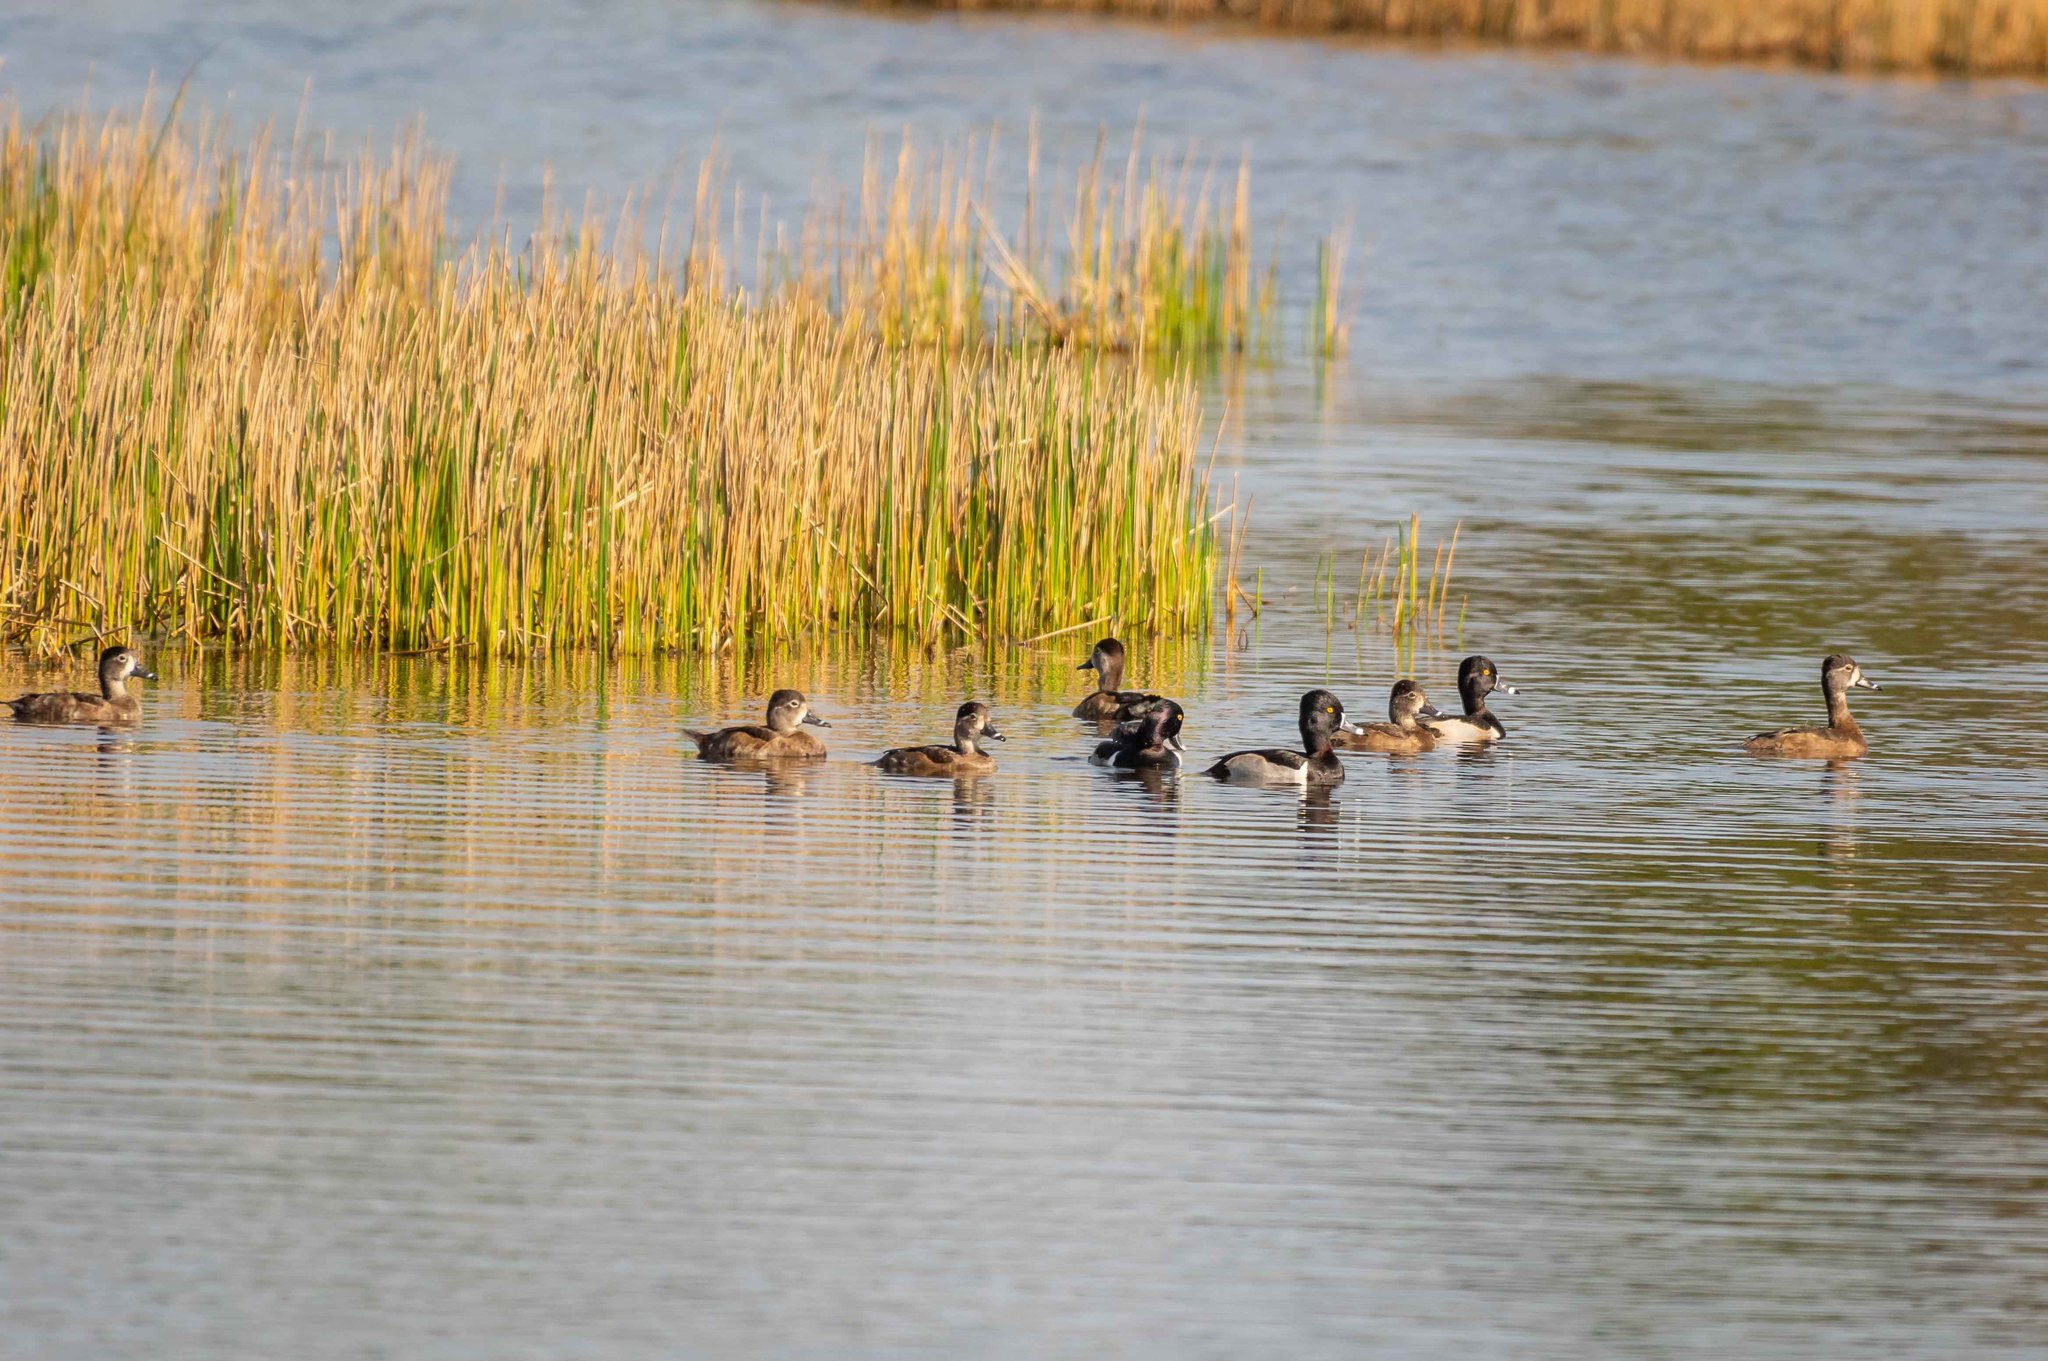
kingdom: Animalia
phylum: Chordata
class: Aves
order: Anseriformes
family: Anatidae
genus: Aythya
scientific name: Aythya collaris
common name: Ring-necked duck
